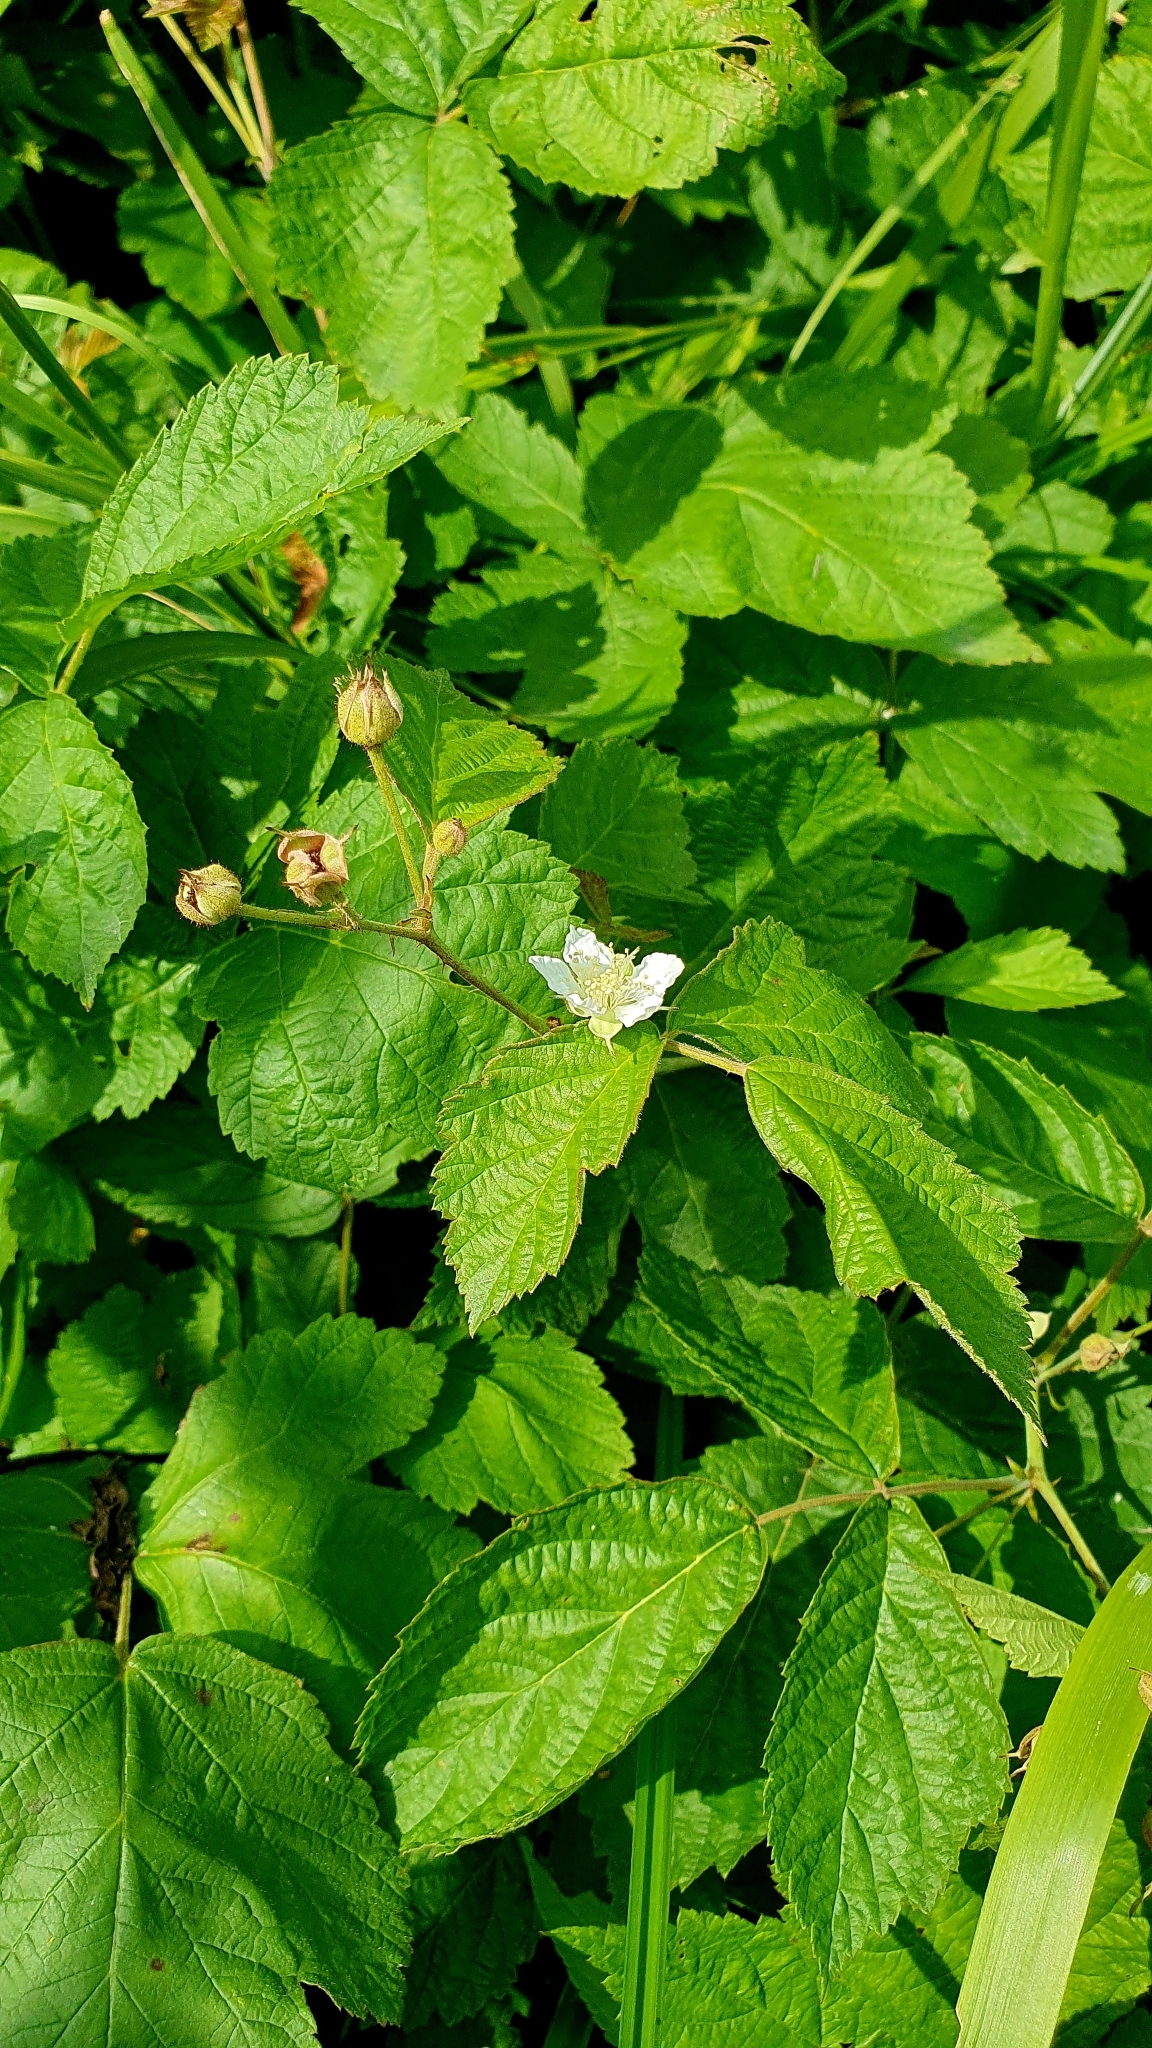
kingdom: Plantae
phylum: Tracheophyta
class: Magnoliopsida
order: Rosales
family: Rosaceae
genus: Rubus
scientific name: Rubus caesius
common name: Dewberry
